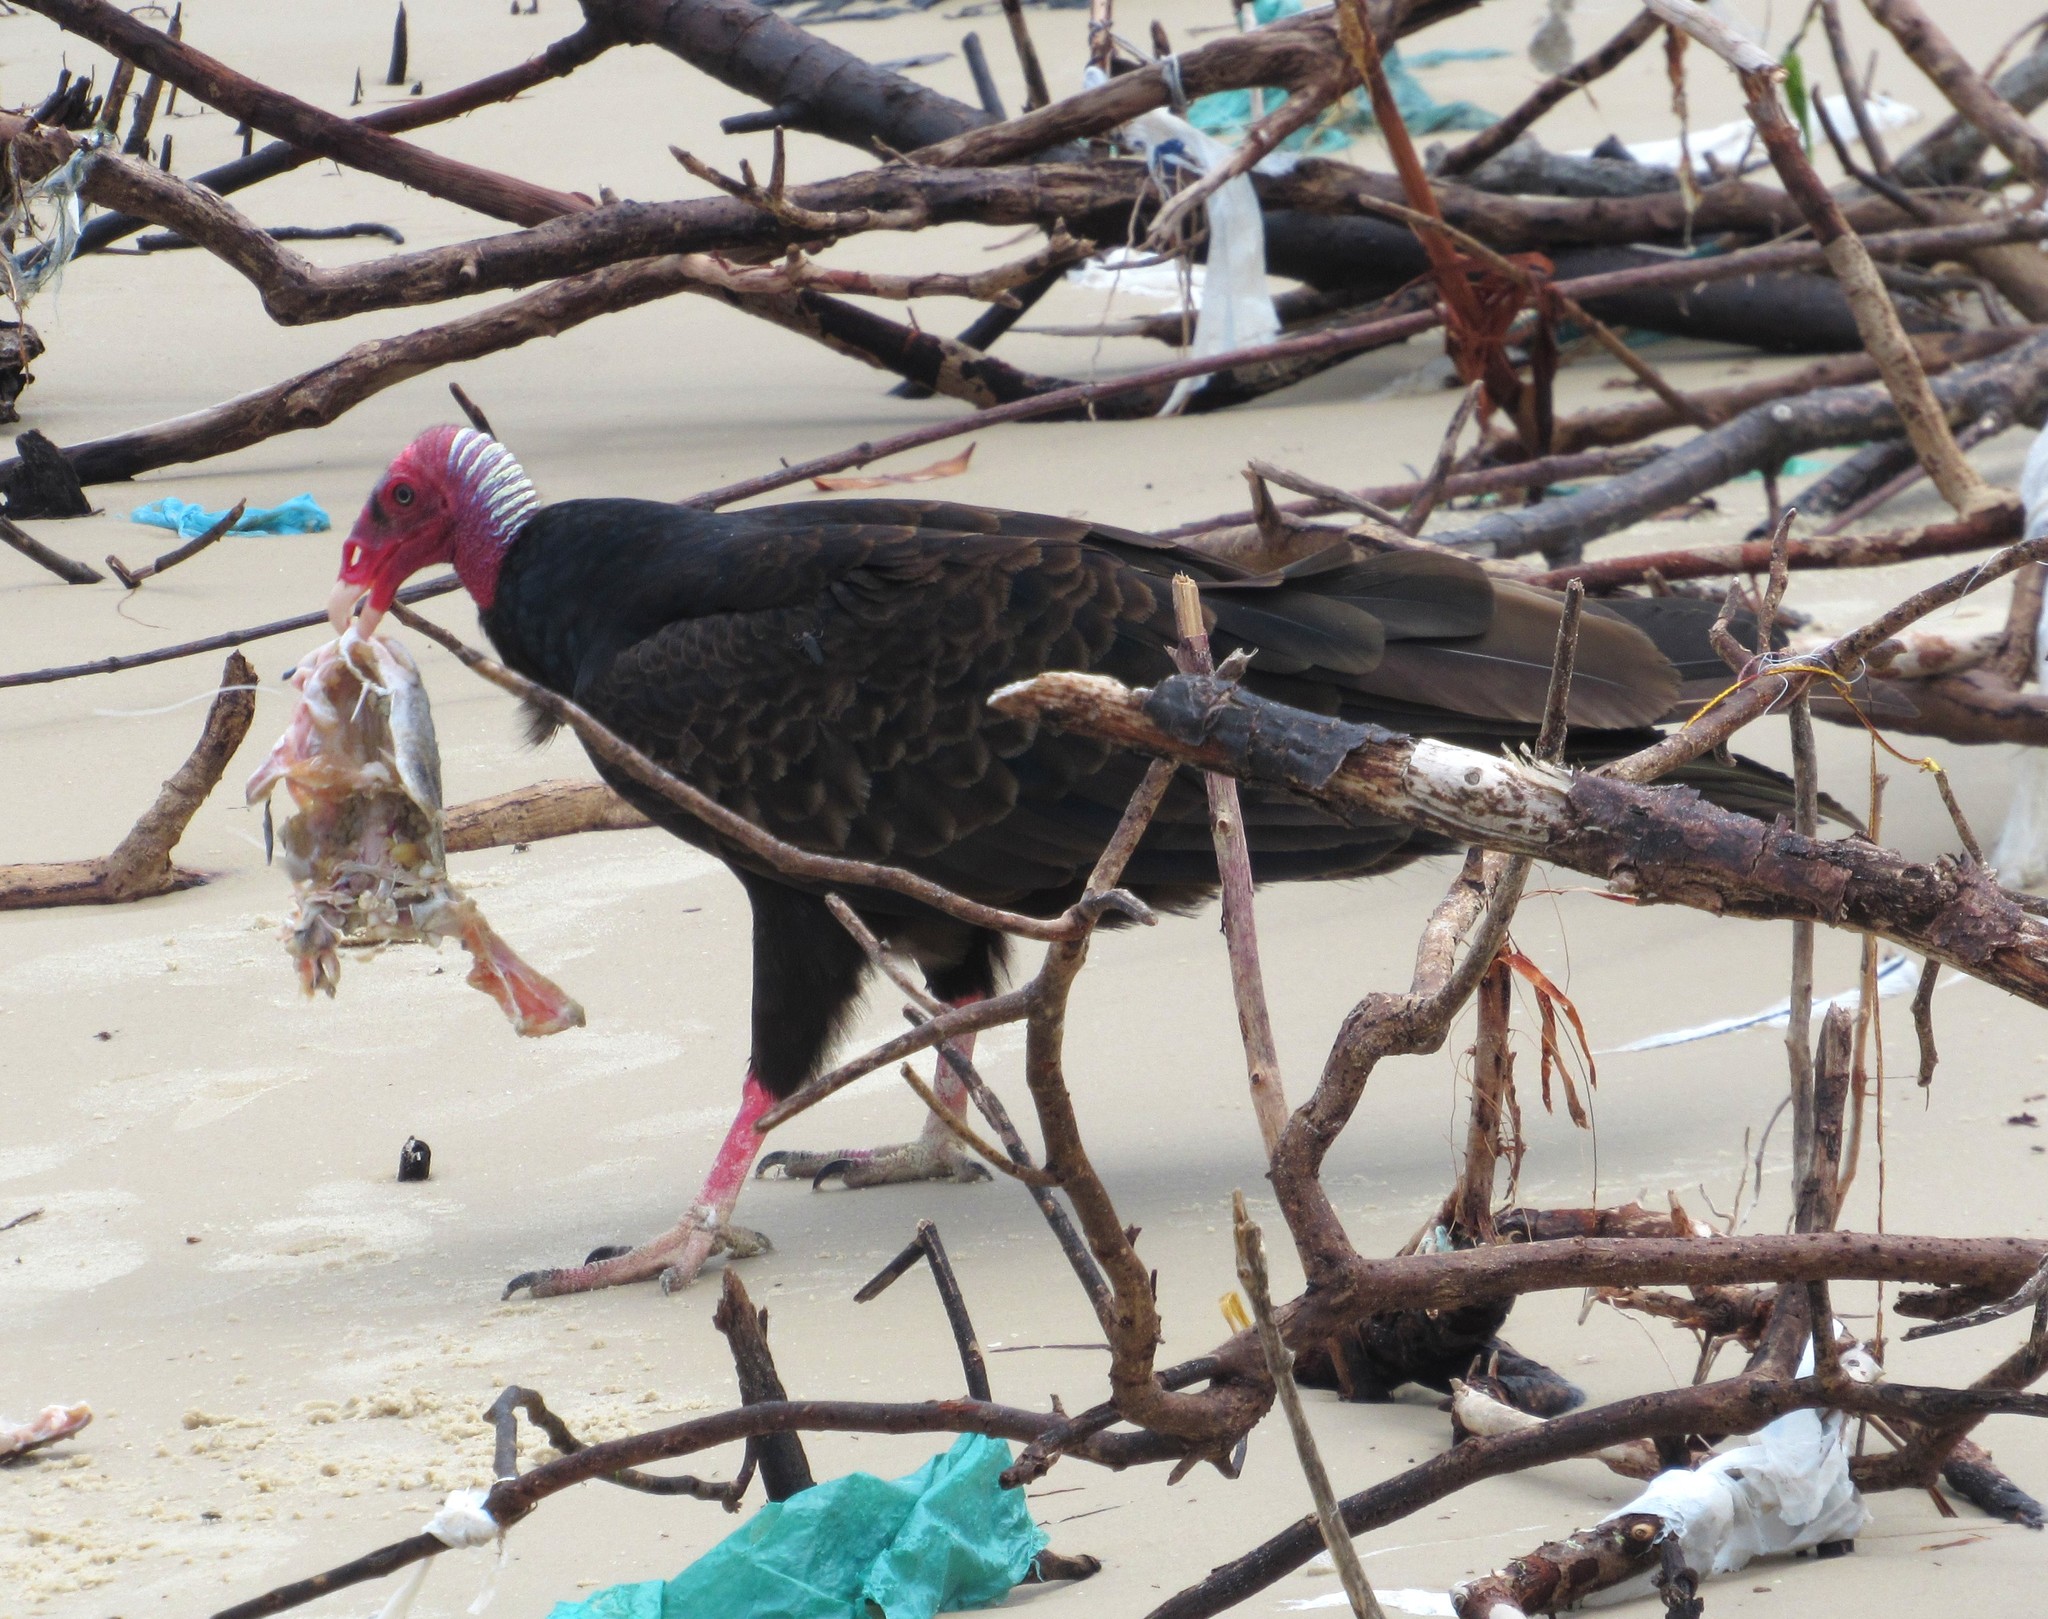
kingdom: Animalia
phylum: Chordata
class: Aves
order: Accipitriformes
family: Cathartidae
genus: Cathartes
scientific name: Cathartes aura
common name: Turkey vulture
